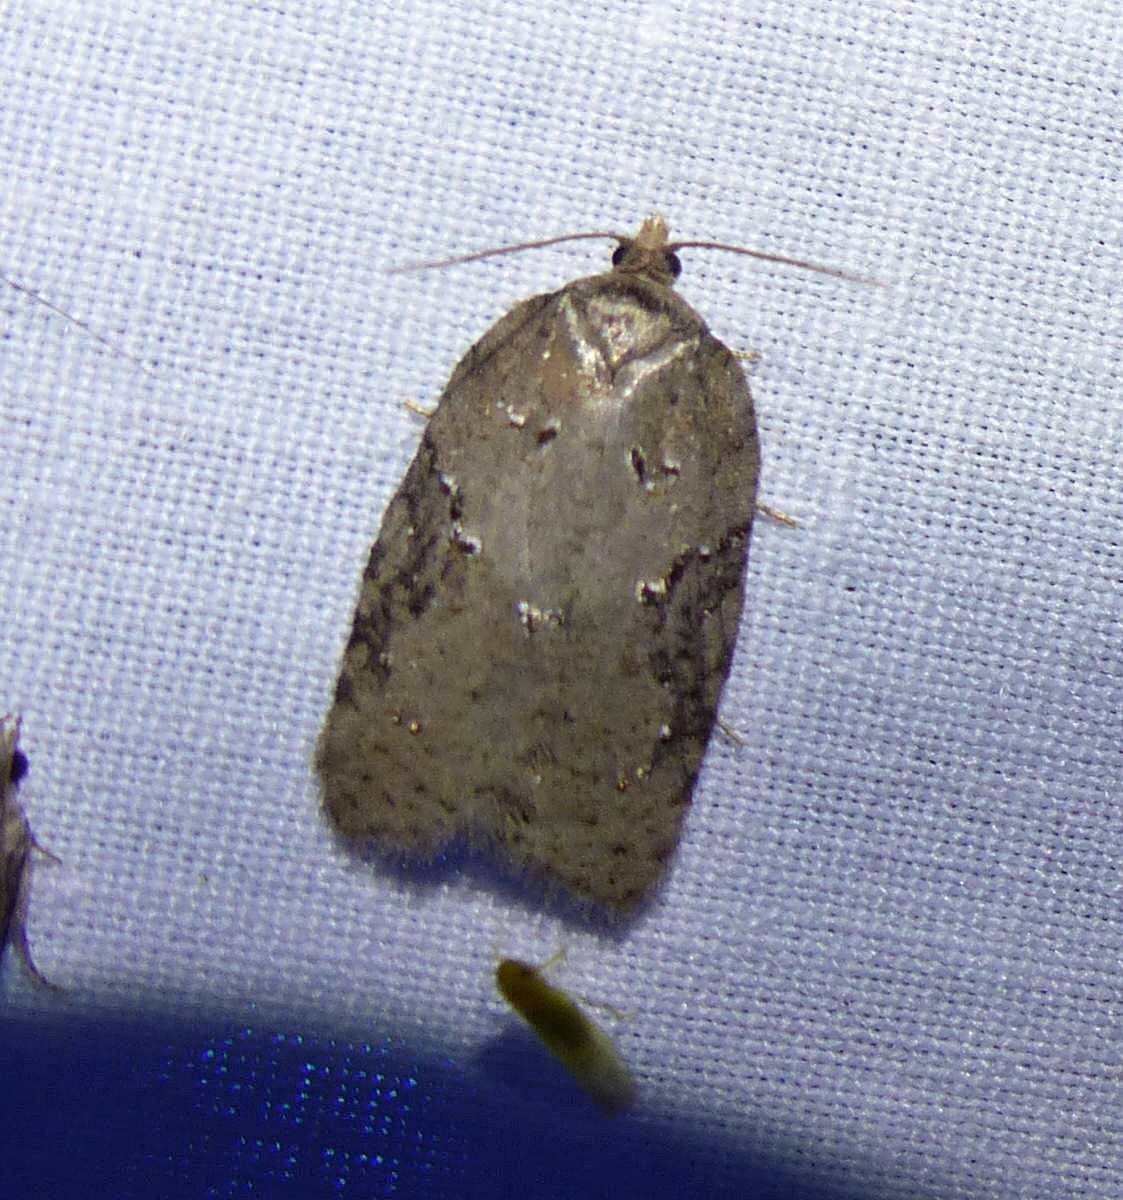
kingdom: Animalia
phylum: Arthropoda
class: Insecta
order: Lepidoptera
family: Tortricidae
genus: Acleris
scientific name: Acleris chalybeana
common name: Lesser maple leafroller
